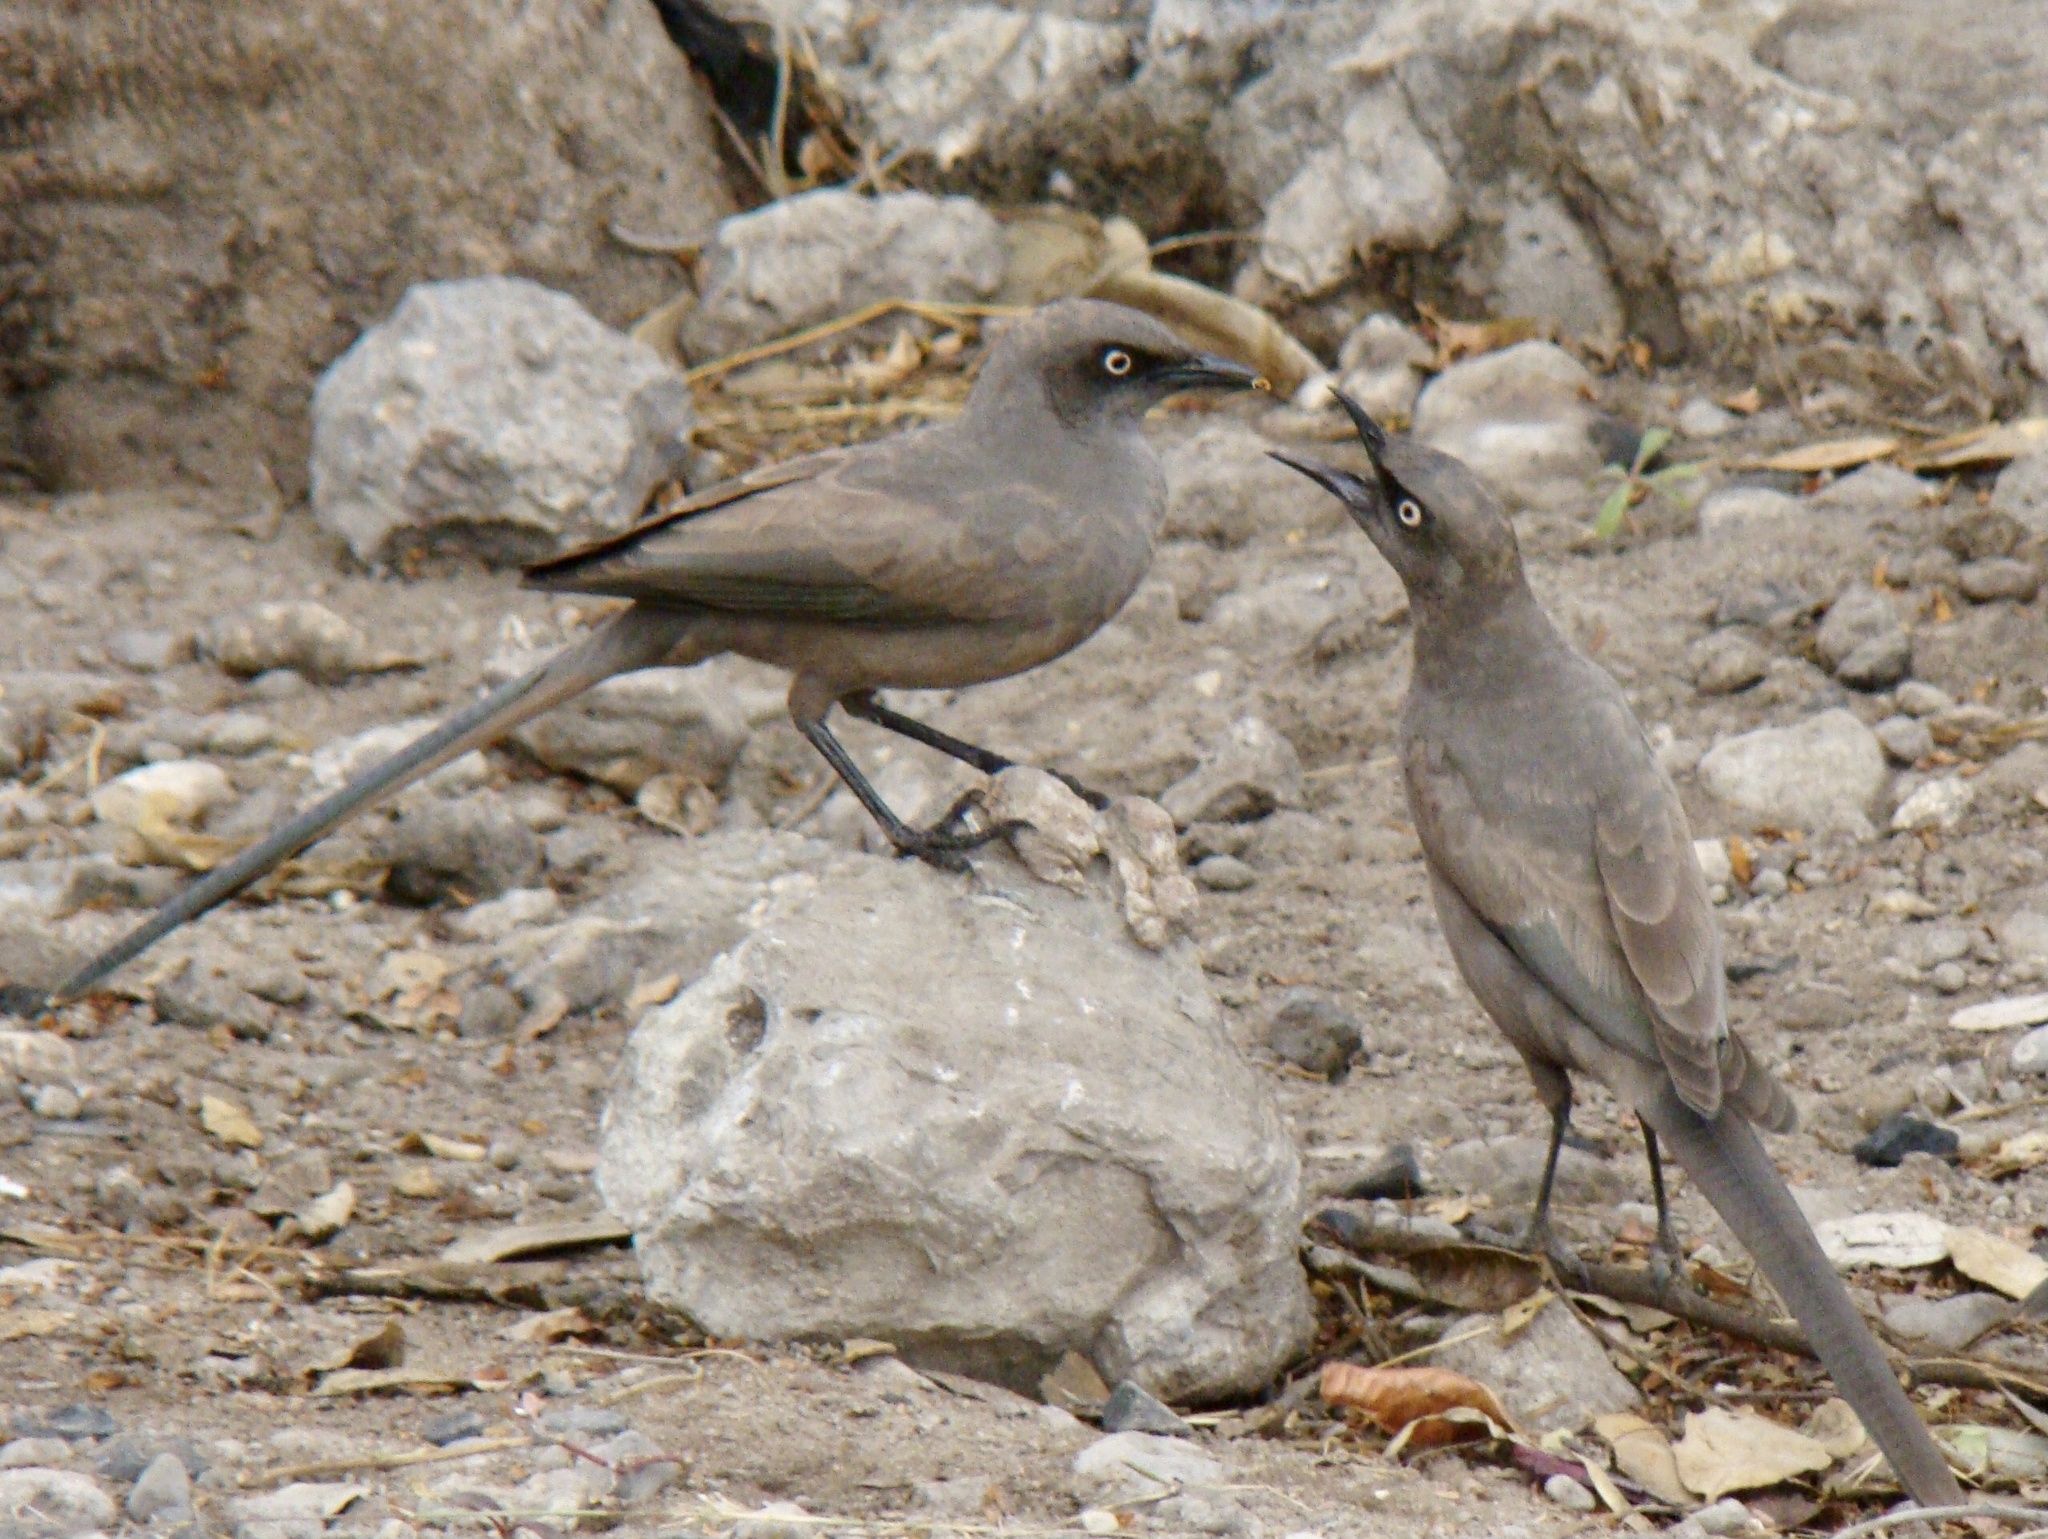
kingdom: Animalia
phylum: Chordata
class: Aves
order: Passeriformes
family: Sturnidae
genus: Lamprotornis
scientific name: Lamprotornis unicolor
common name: Ashy starling
